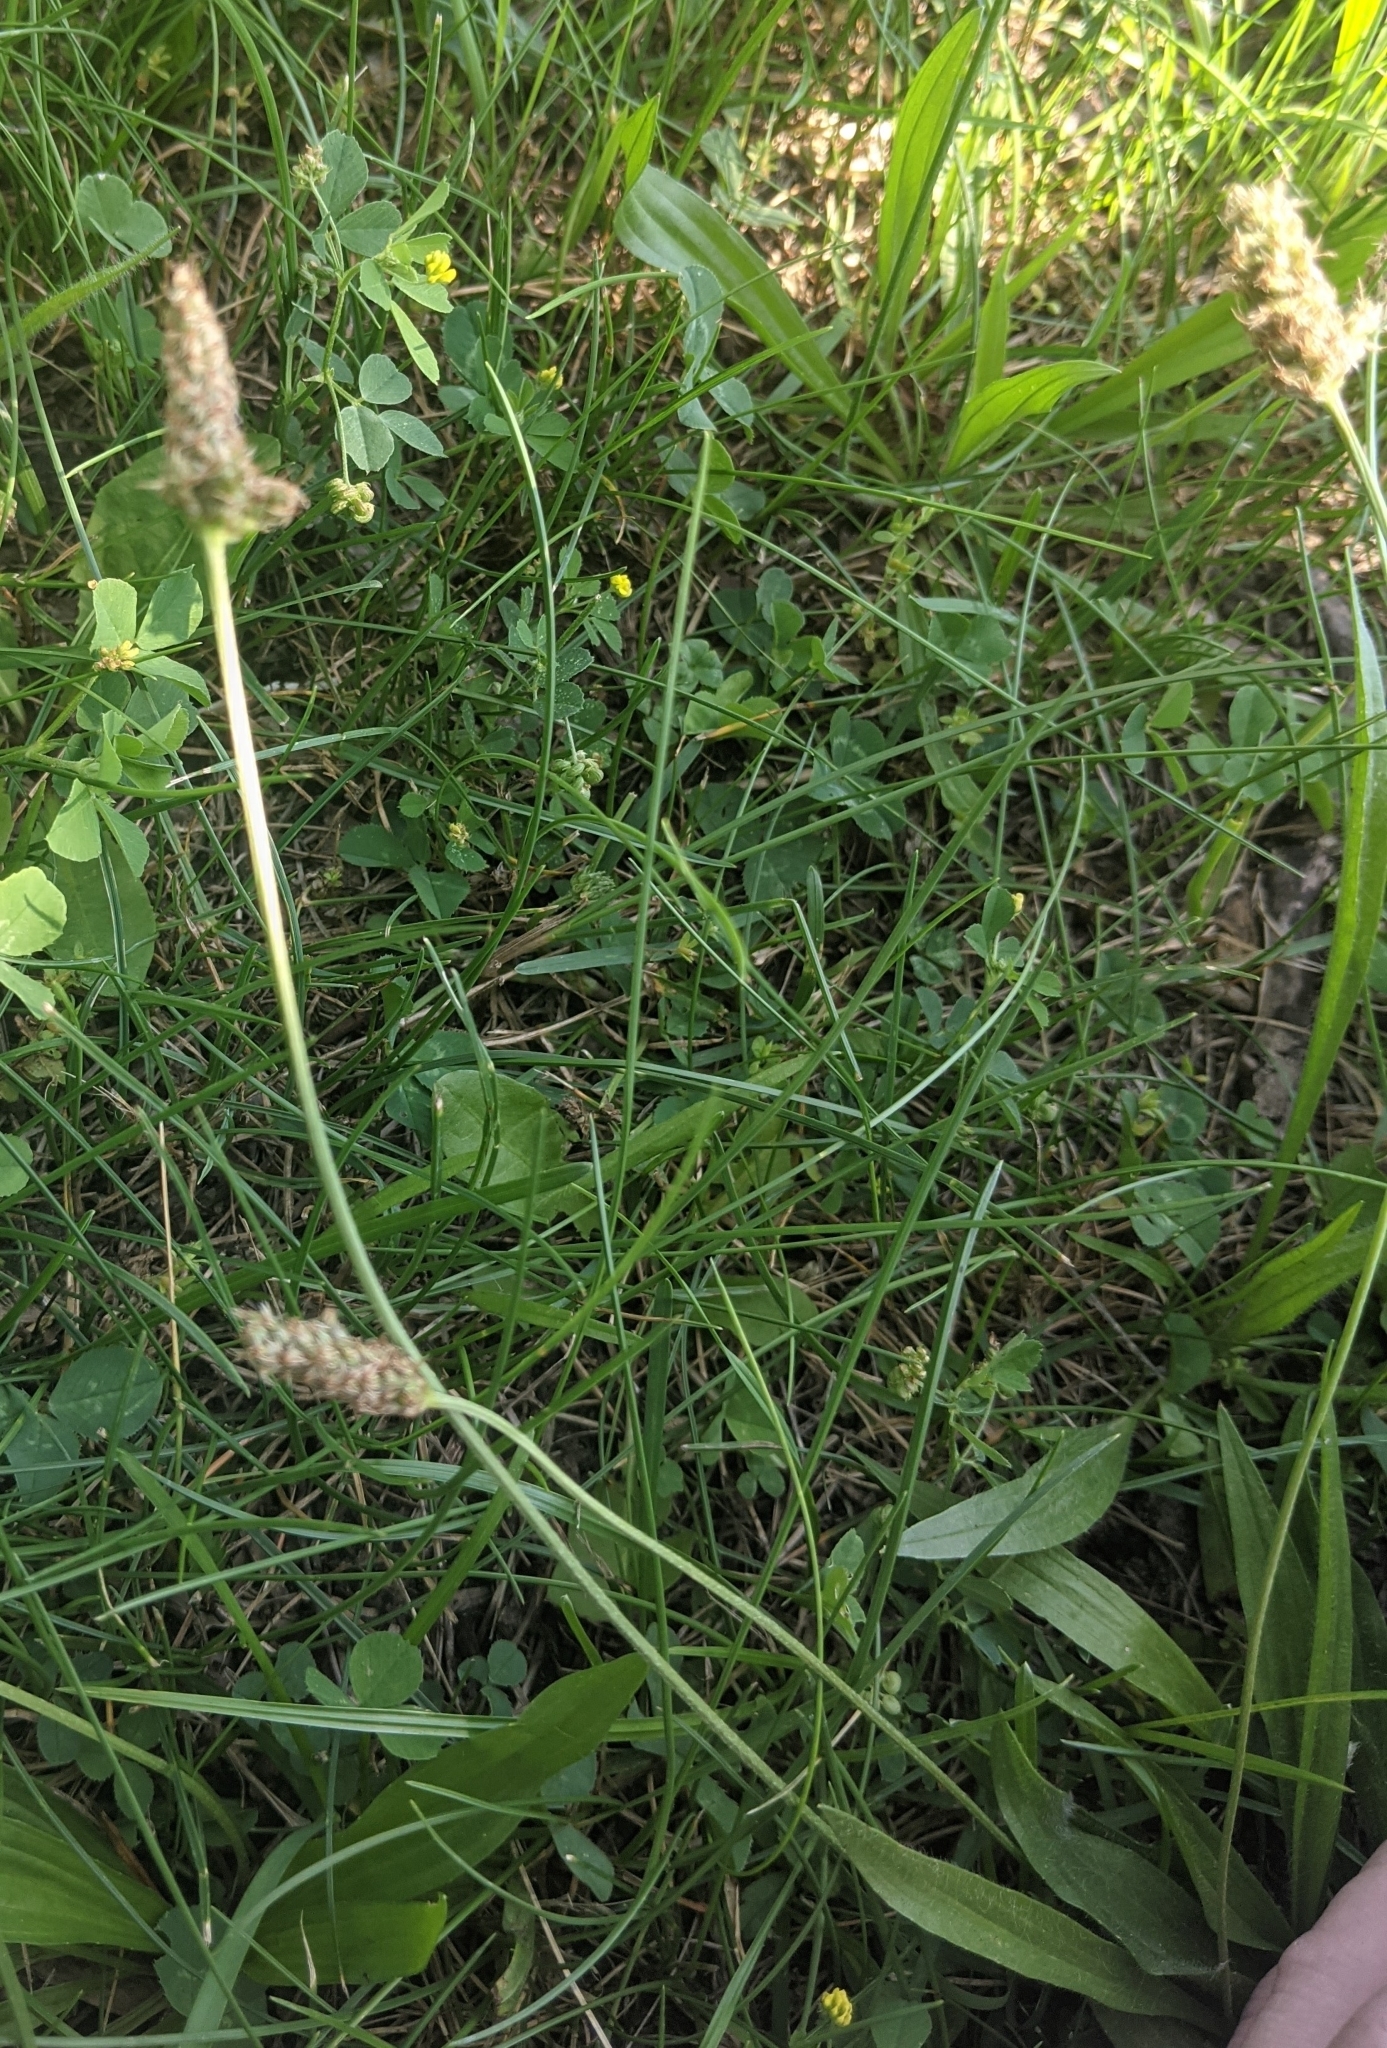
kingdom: Plantae
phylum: Tracheophyta
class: Magnoliopsida
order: Lamiales
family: Plantaginaceae
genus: Plantago
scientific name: Plantago lanceolata
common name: Ribwort plantain
